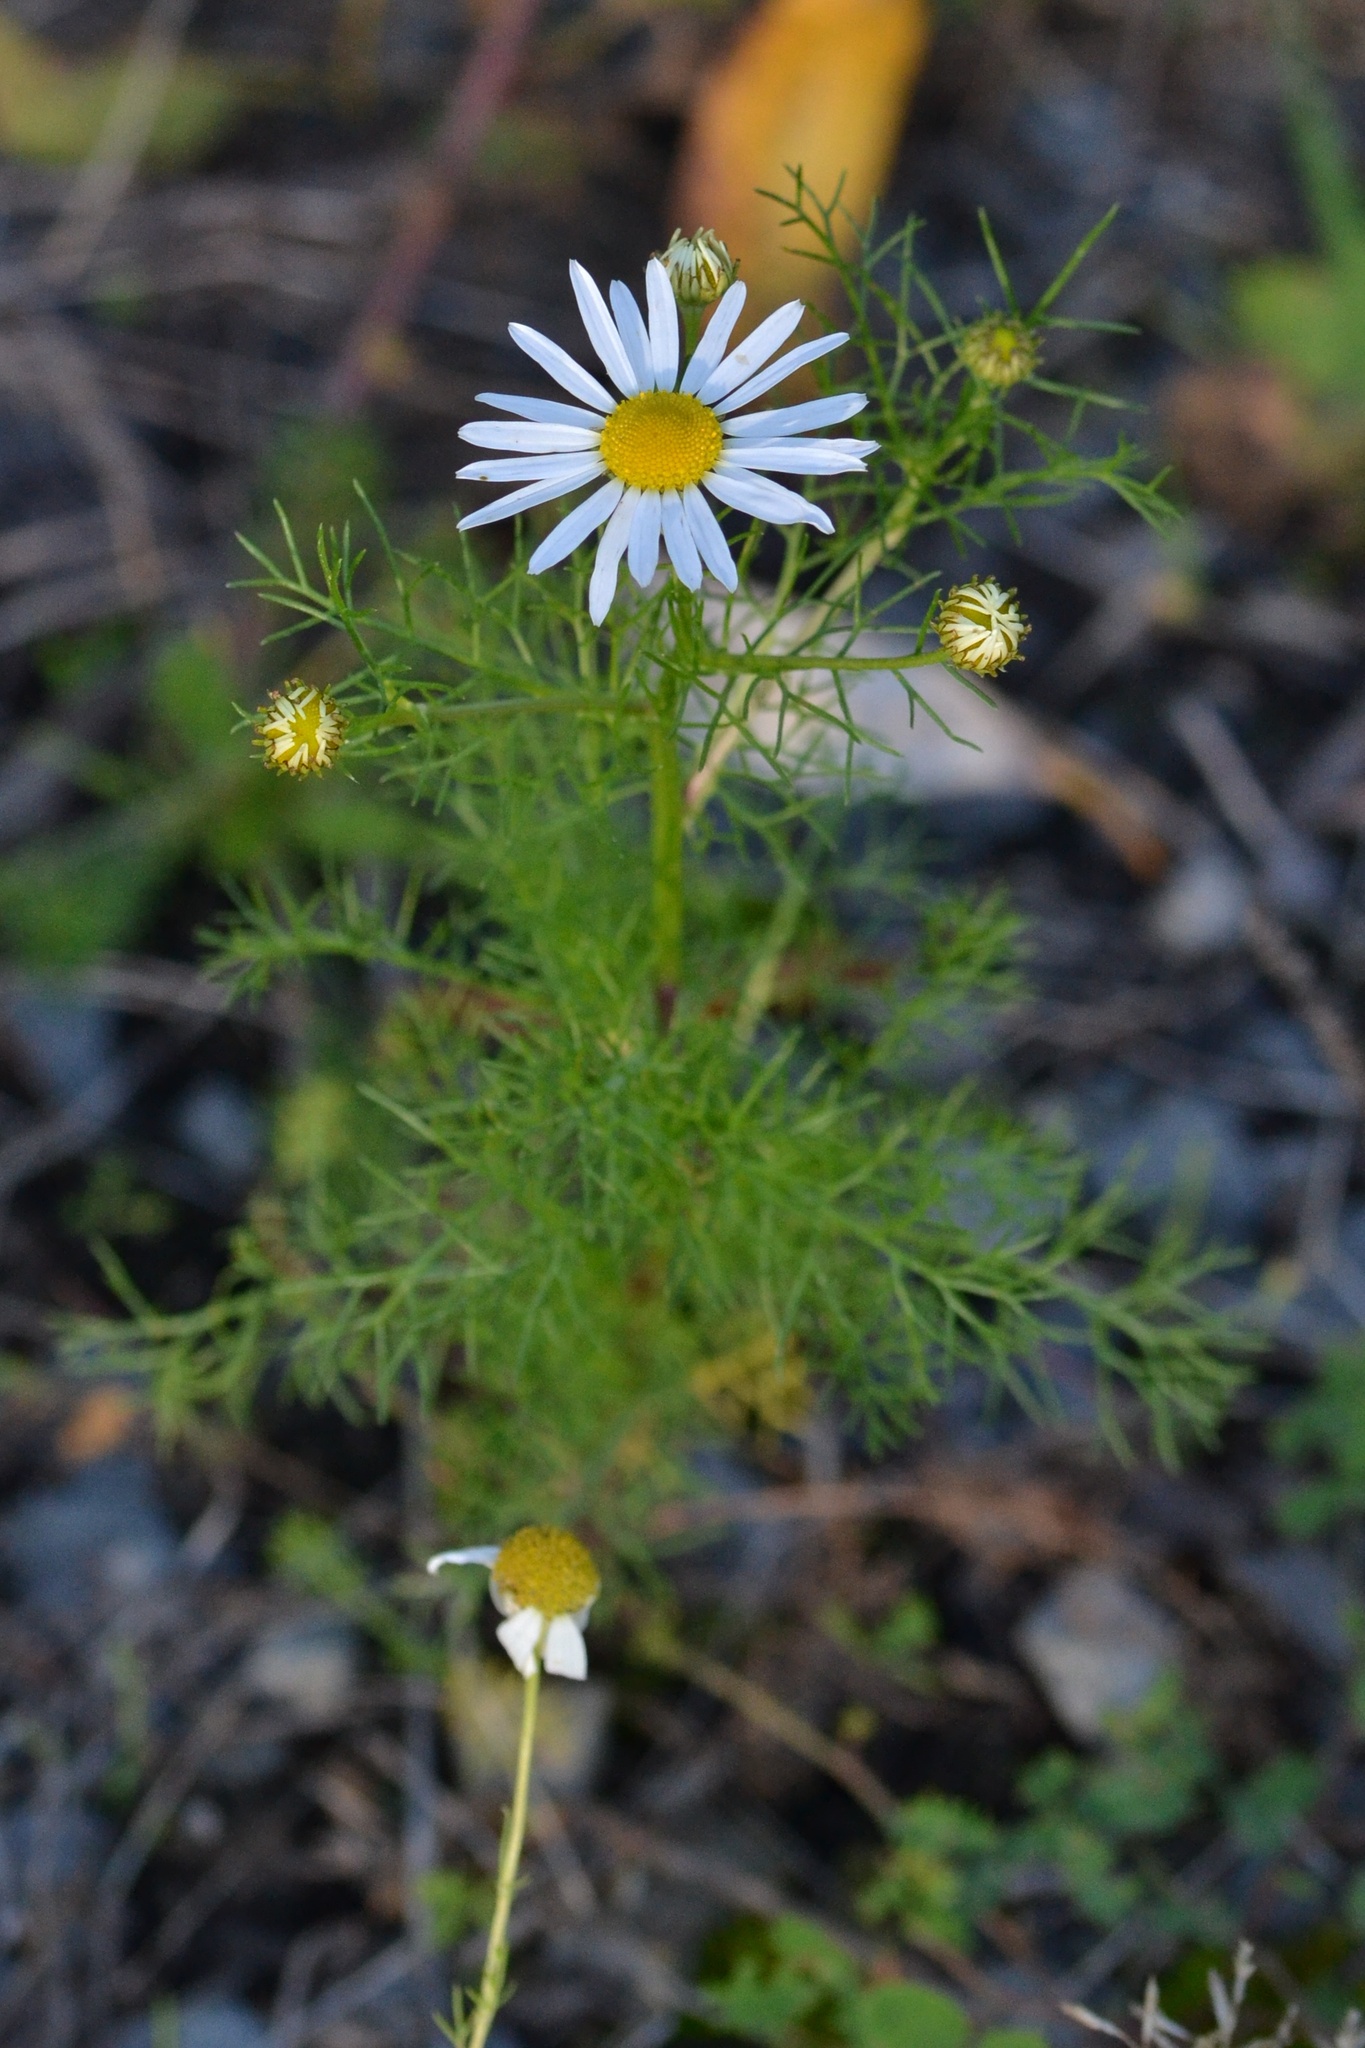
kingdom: Plantae
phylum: Tracheophyta
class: Magnoliopsida
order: Asterales
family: Asteraceae
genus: Tripleurospermum
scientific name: Tripleurospermum inodorum
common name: Scentless mayweed
